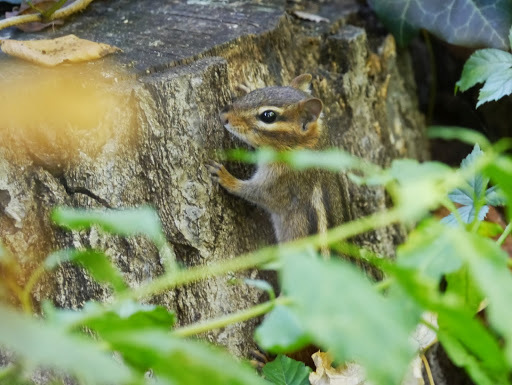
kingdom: Animalia
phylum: Chordata
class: Mammalia
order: Rodentia
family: Sciuridae
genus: Tamias
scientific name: Tamias striatus
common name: Eastern chipmunk
